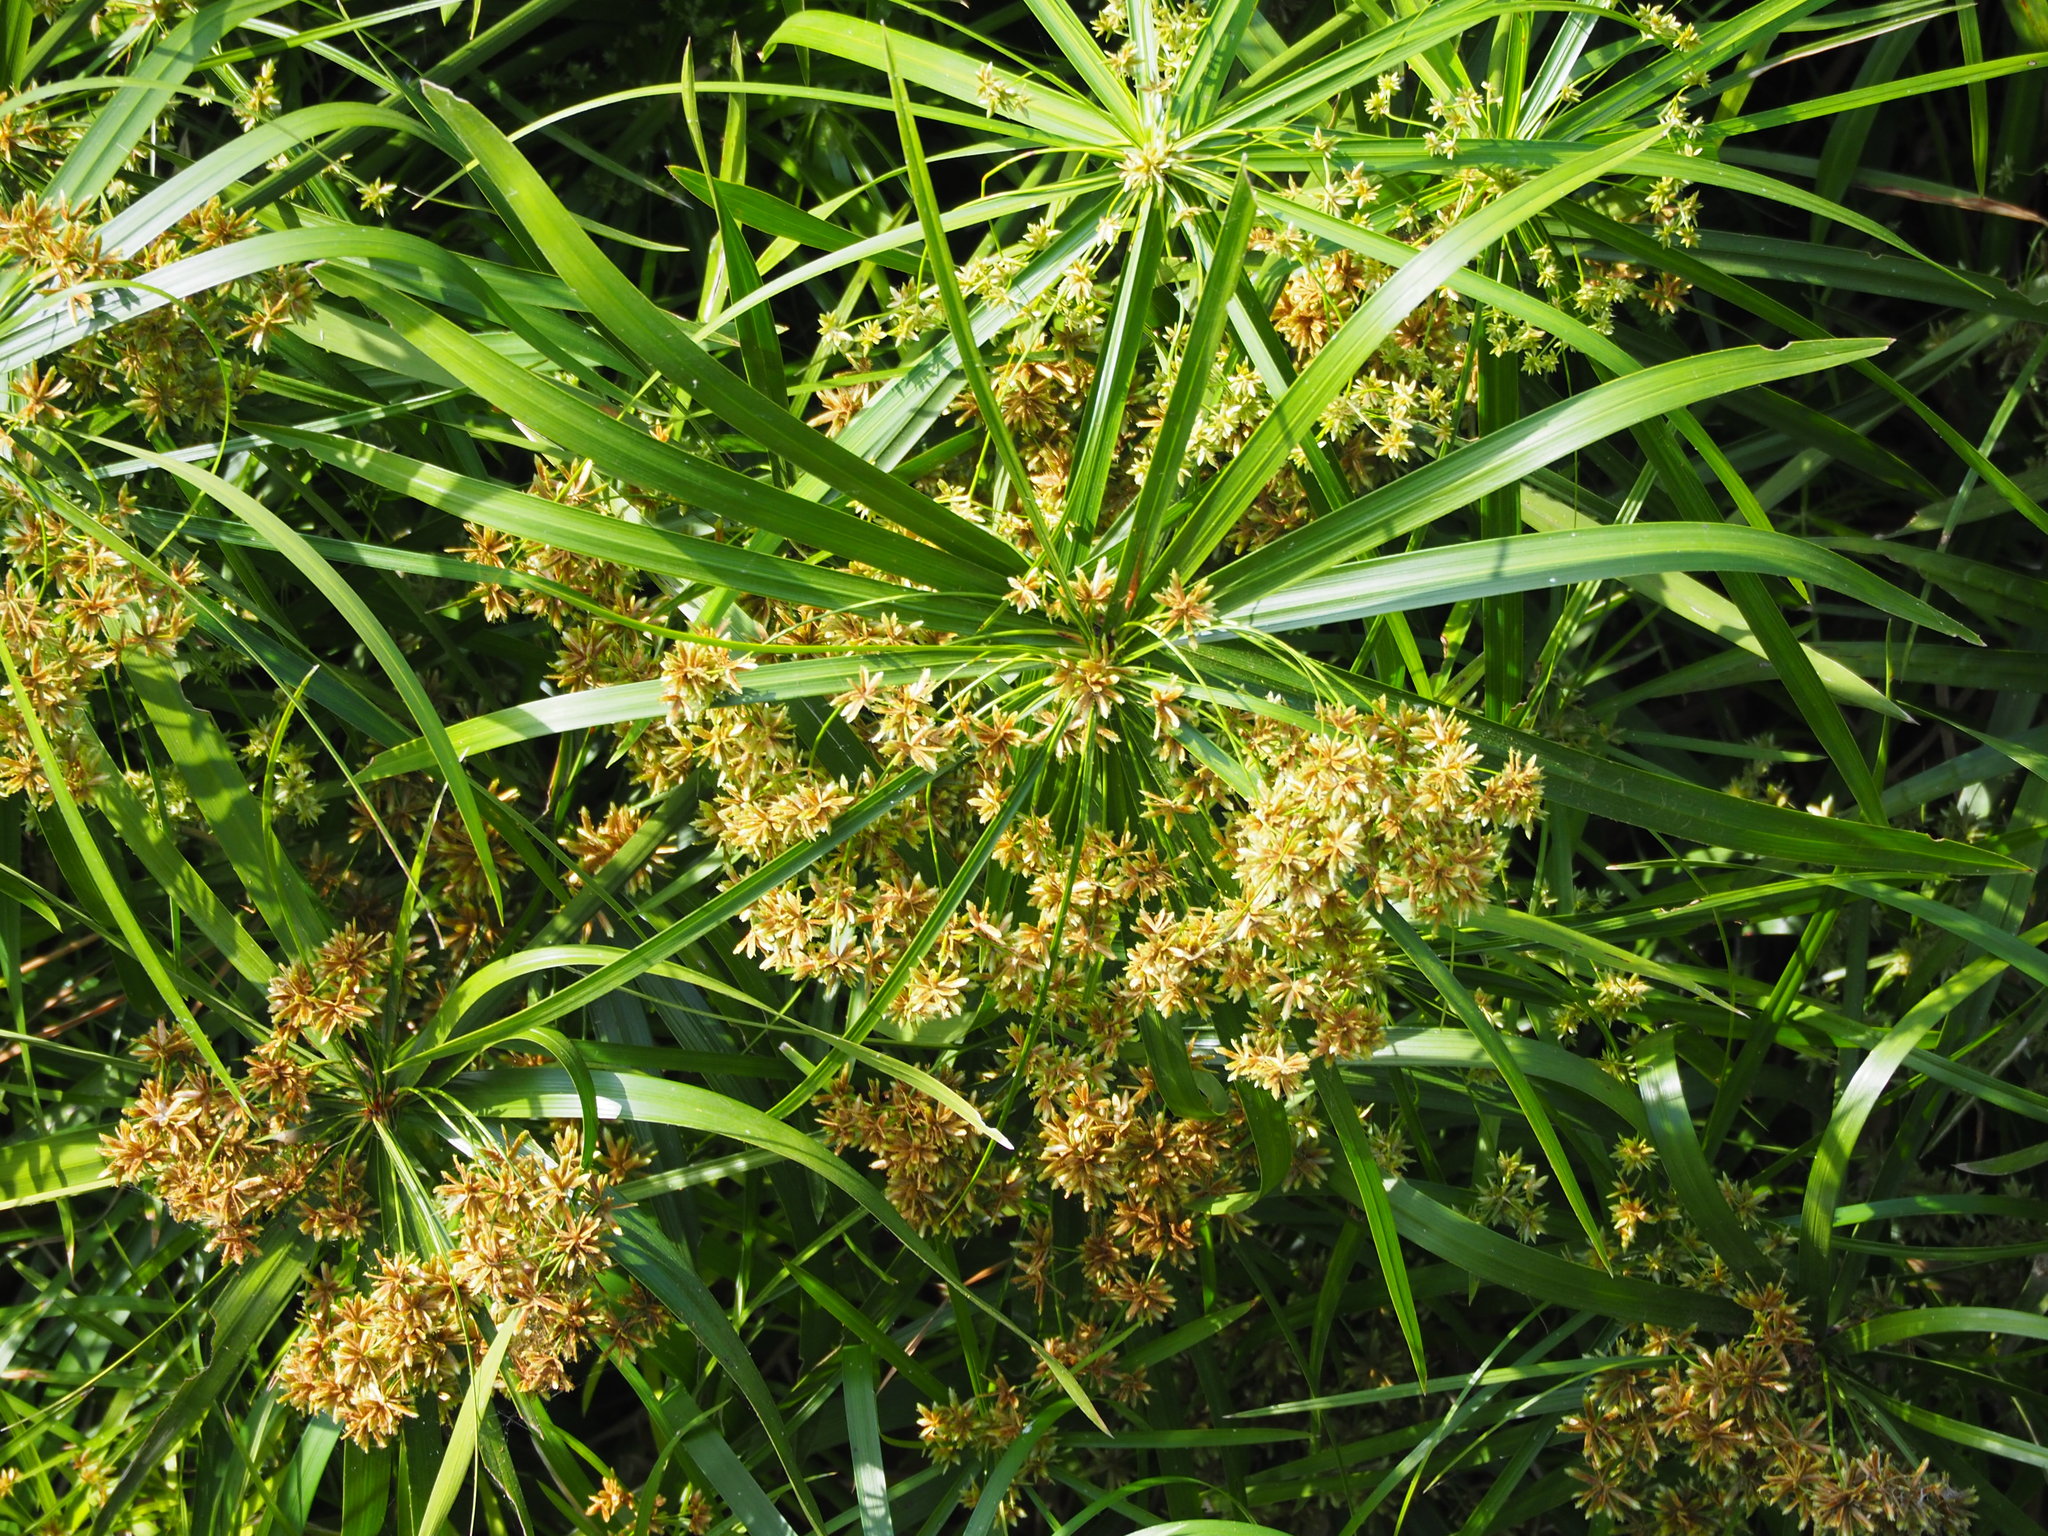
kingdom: Plantae
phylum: Tracheophyta
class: Liliopsida
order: Poales
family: Cyperaceae
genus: Cyperus
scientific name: Cyperus alternifolius
